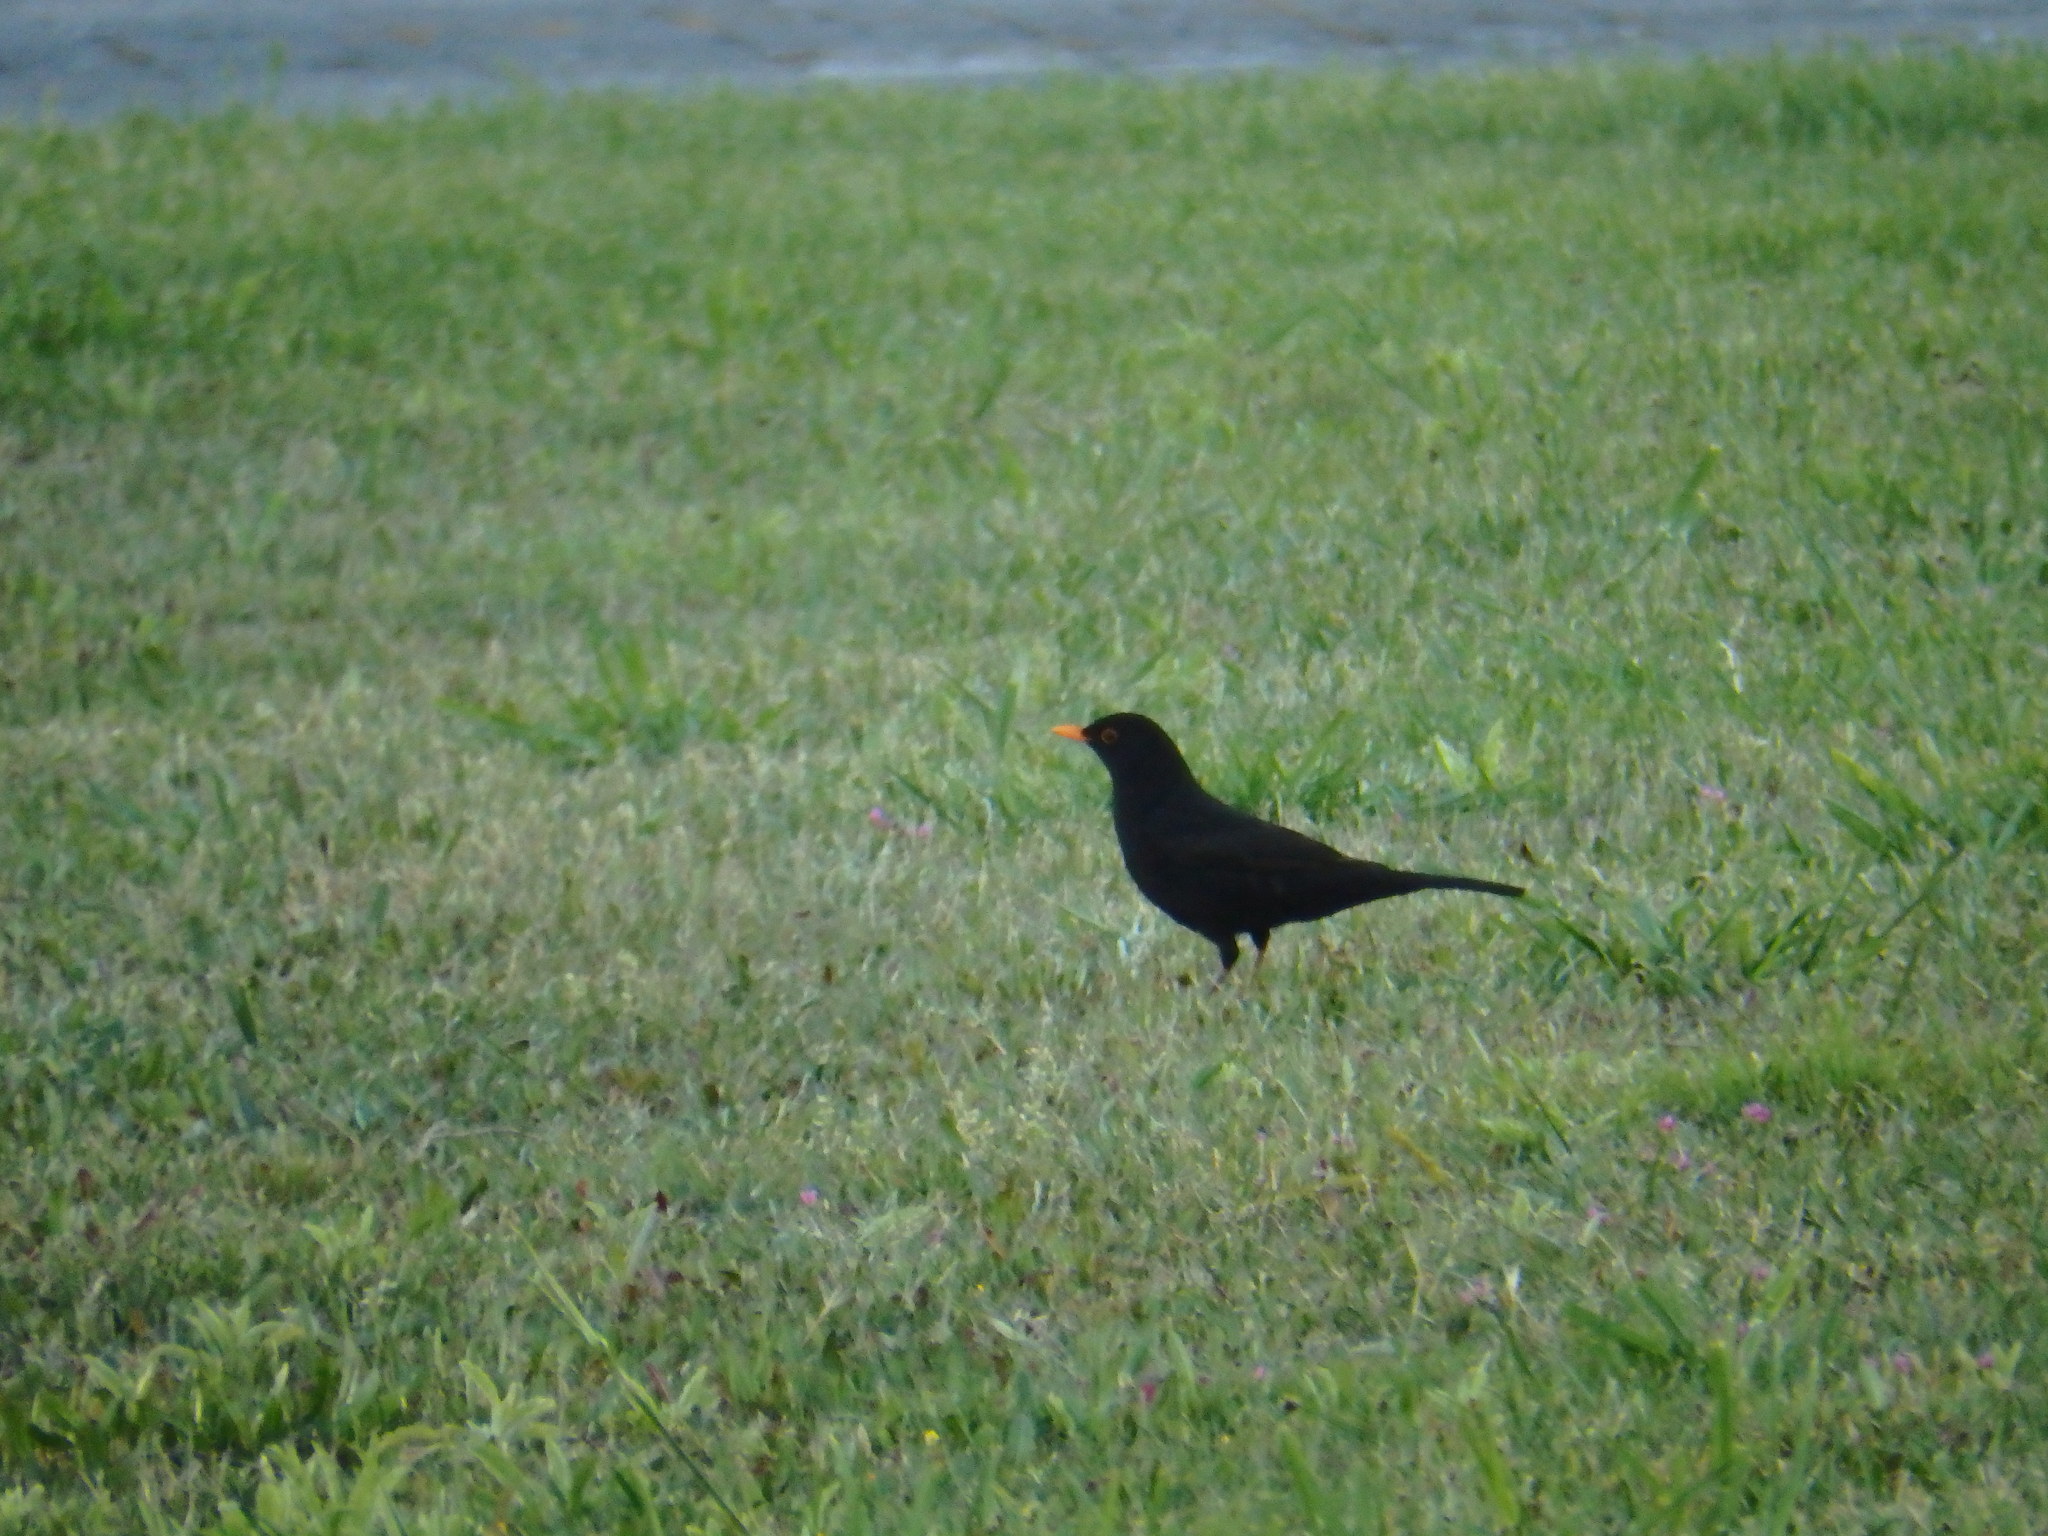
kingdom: Animalia
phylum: Chordata
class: Aves
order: Passeriformes
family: Turdidae
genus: Turdus
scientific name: Turdus merula
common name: Common blackbird
